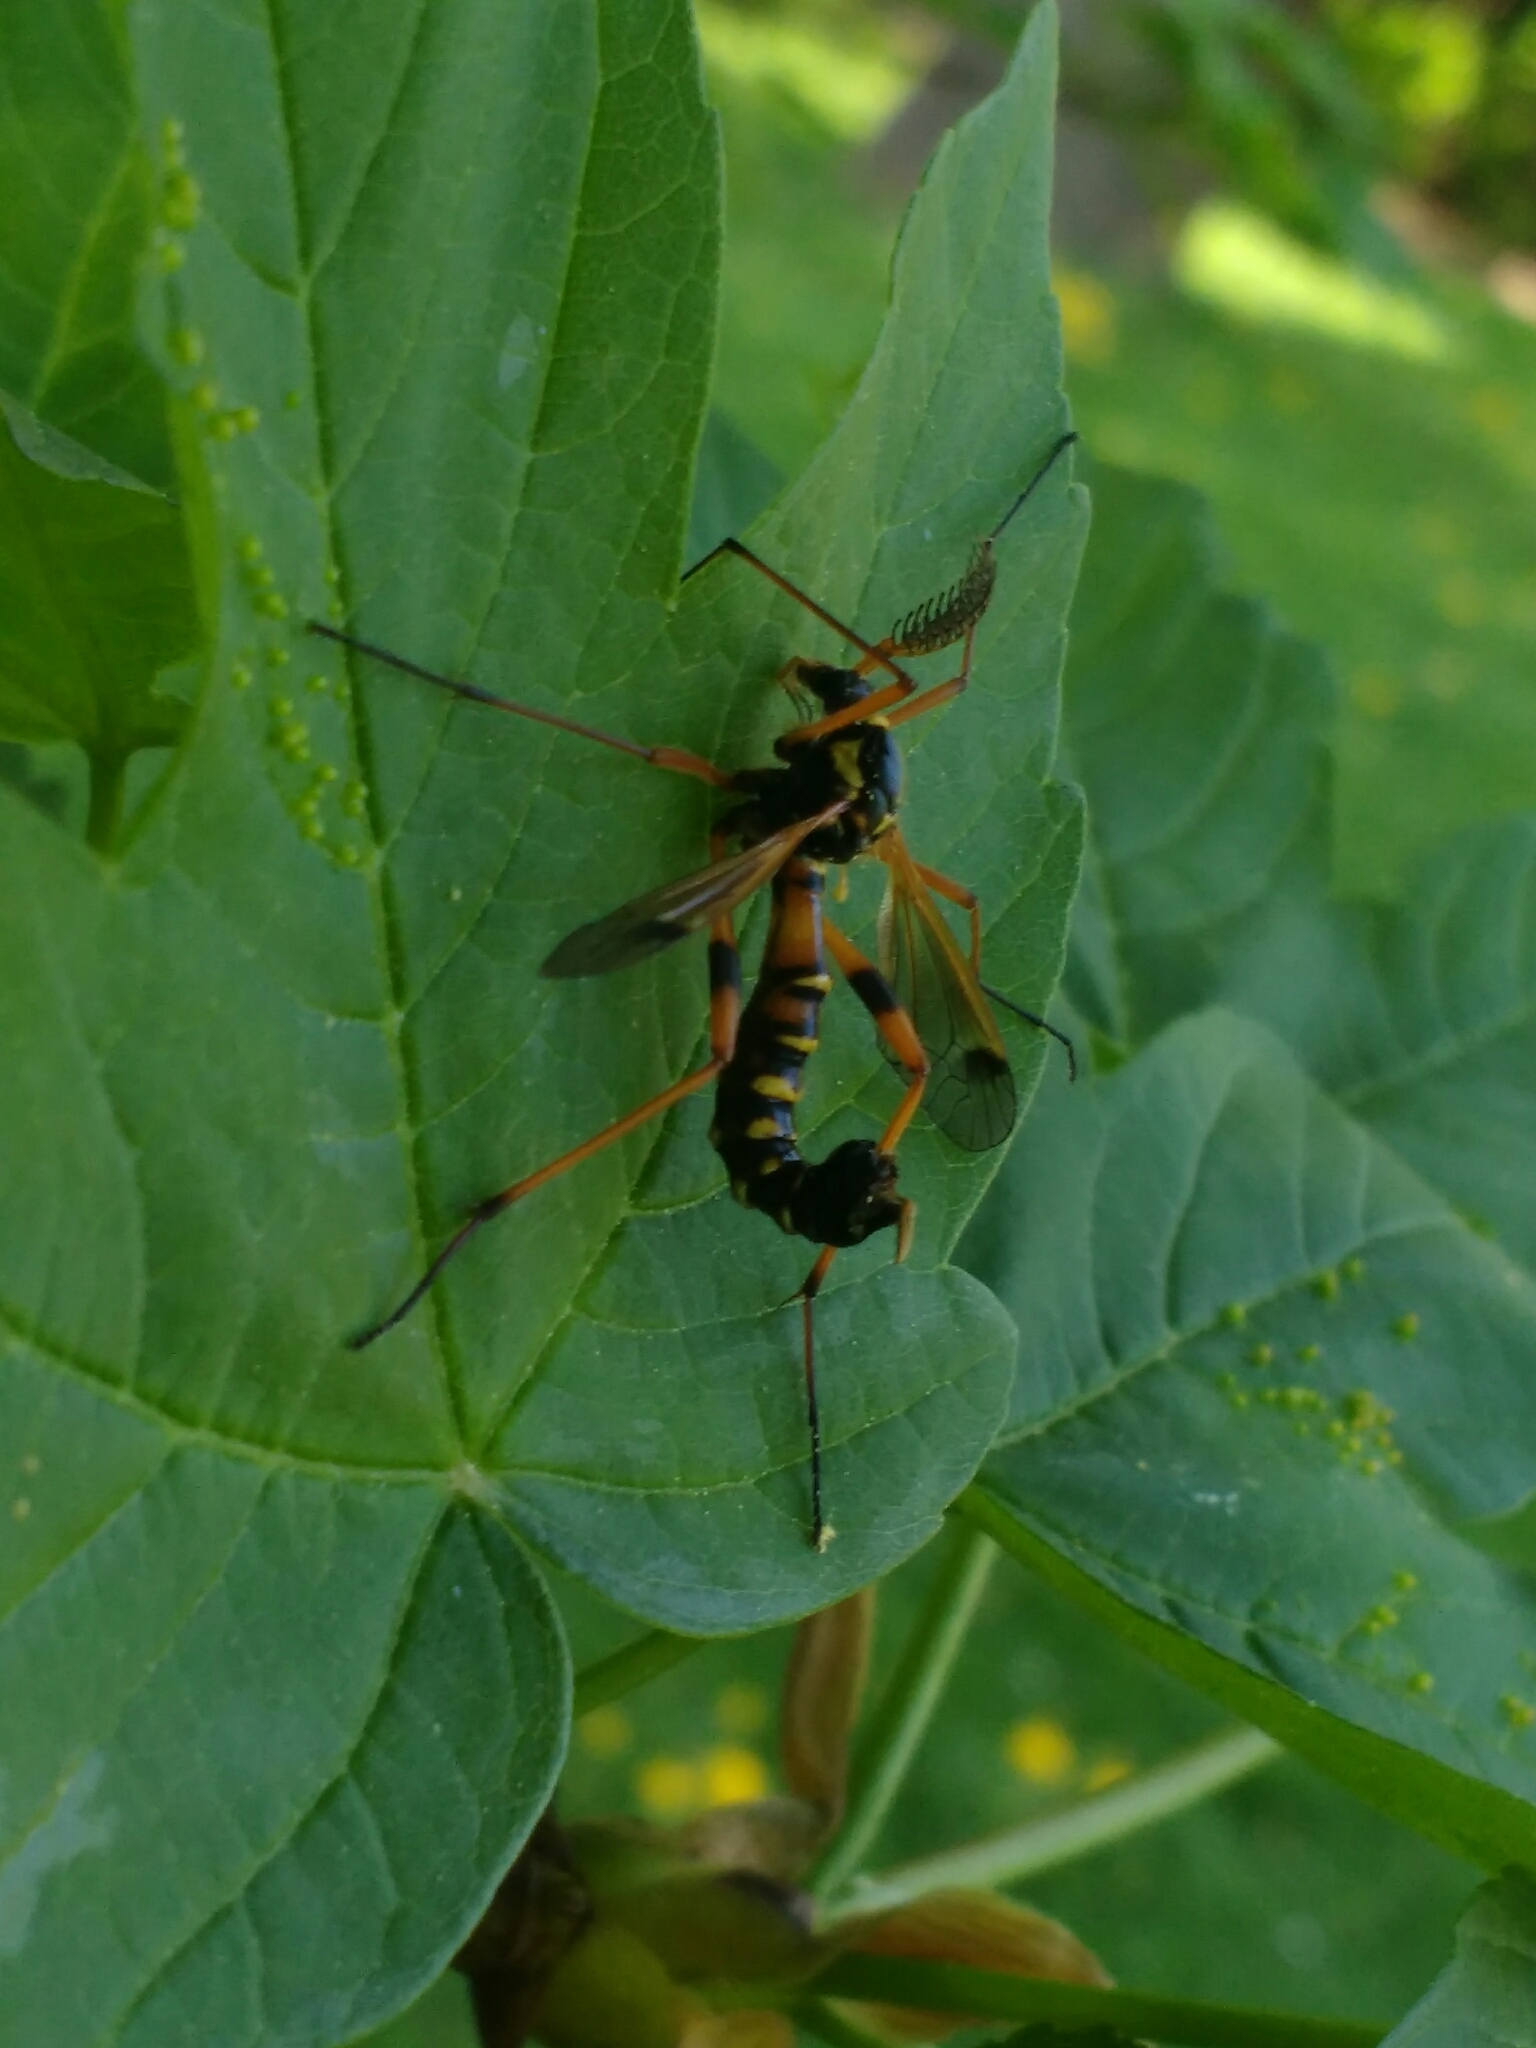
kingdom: Animalia
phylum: Arthropoda
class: Insecta
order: Diptera
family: Tipulidae
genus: Ctenophora
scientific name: Ctenophora elegans
